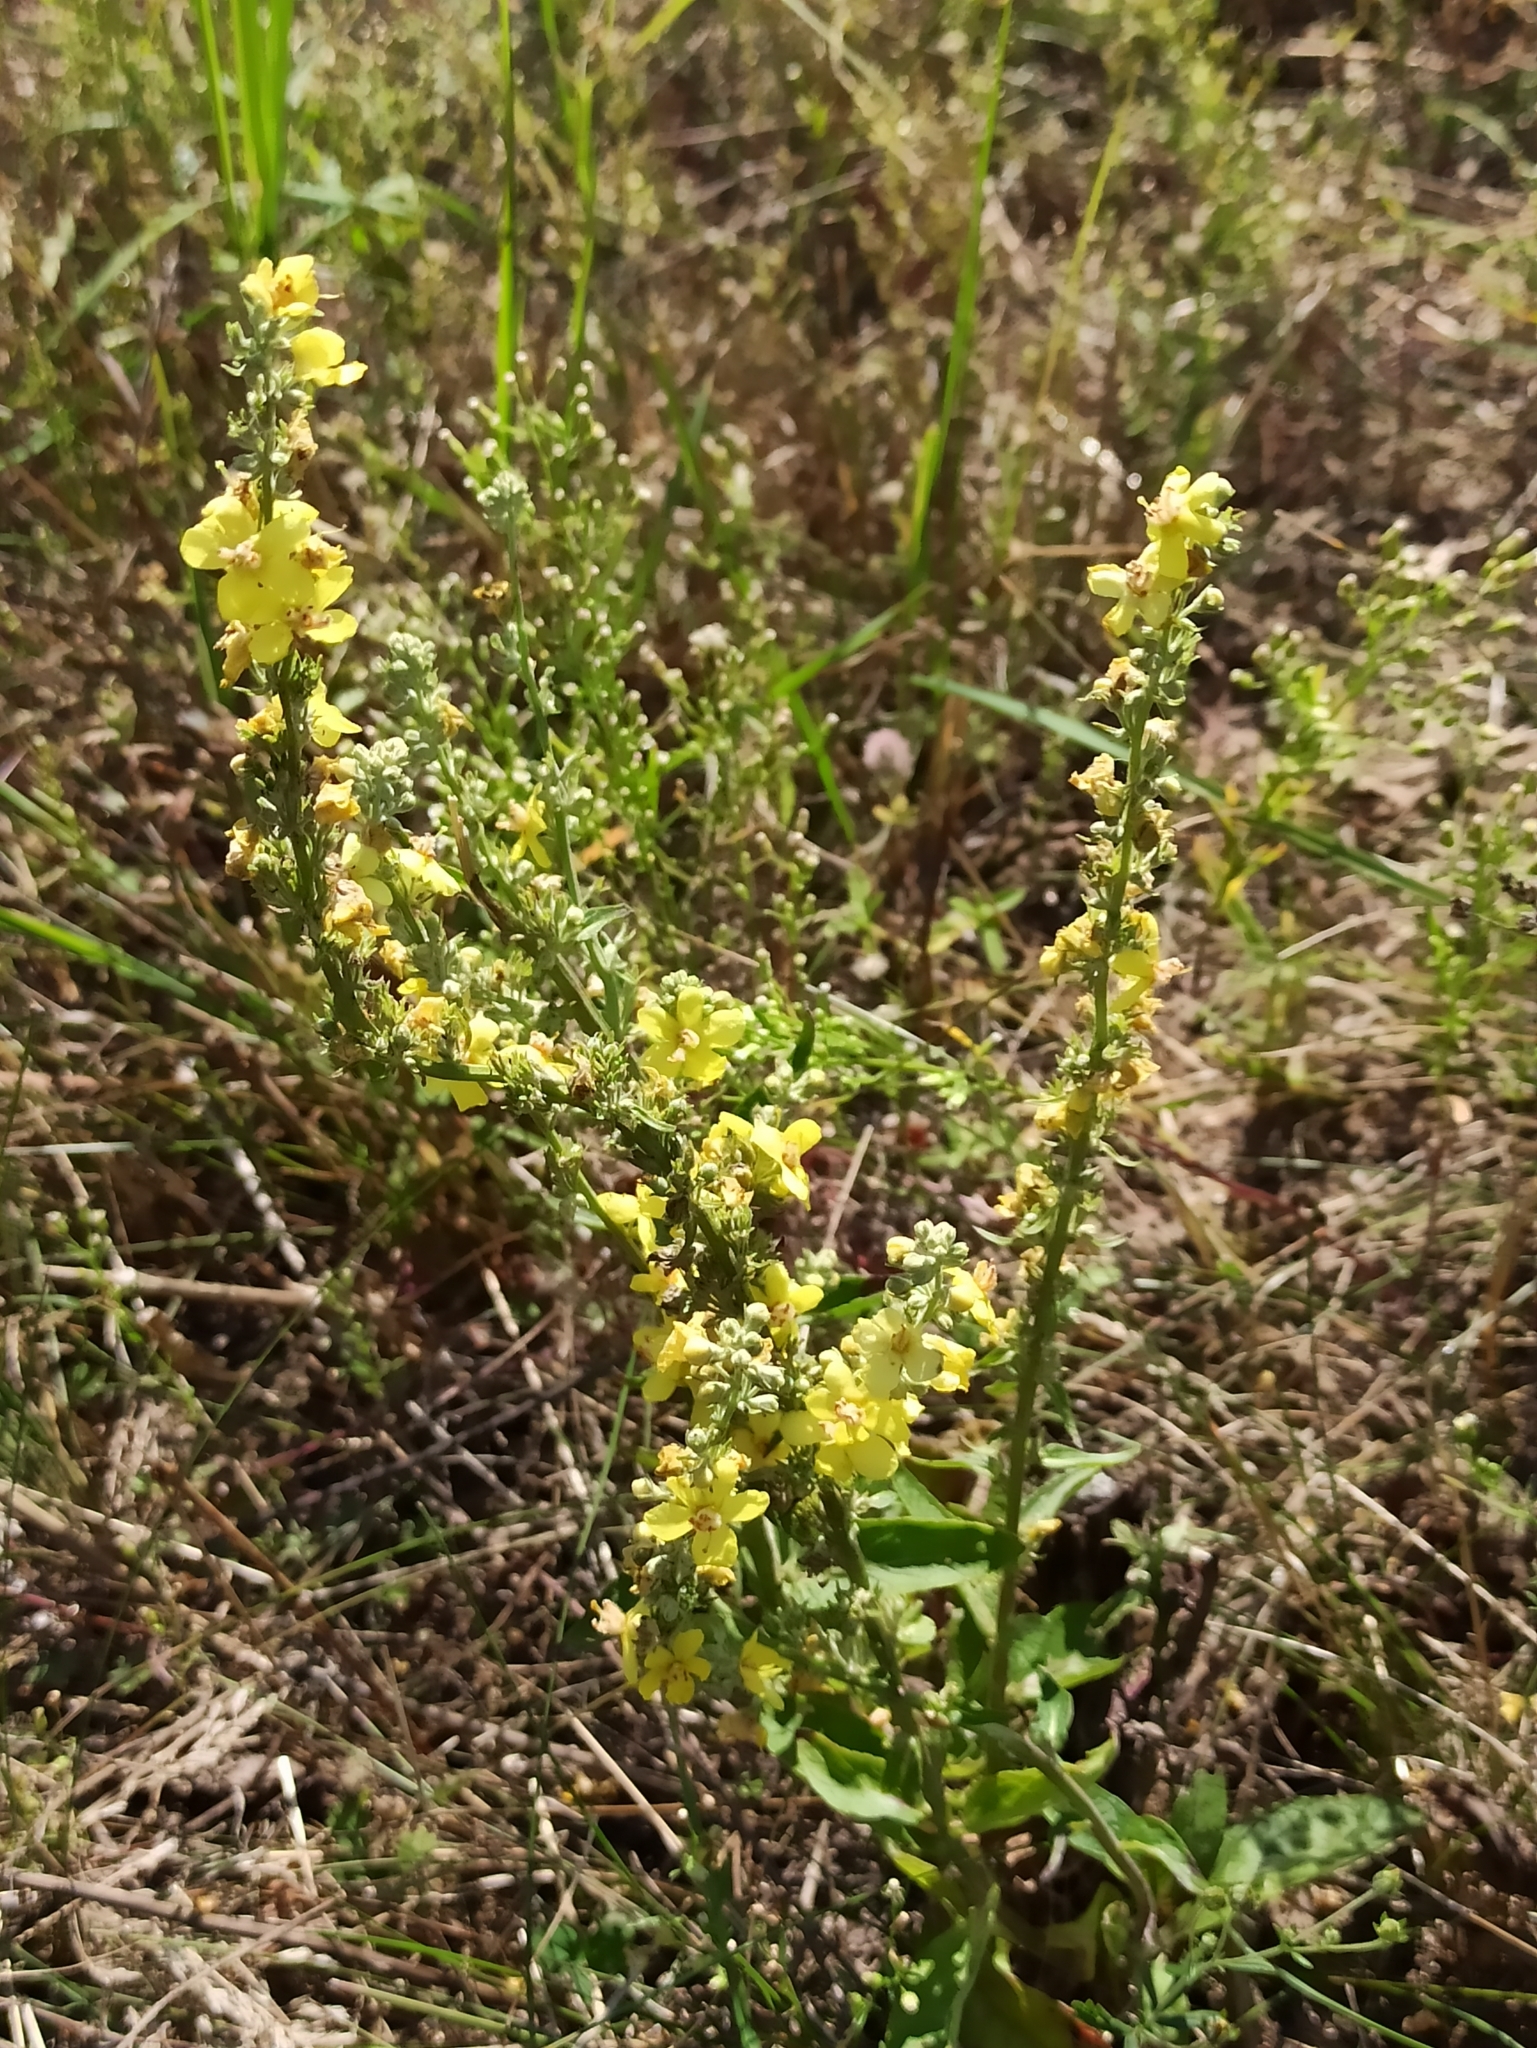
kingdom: Plantae
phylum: Tracheophyta
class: Magnoliopsida
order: Lamiales
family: Scrophulariaceae
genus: Verbascum
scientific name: Verbascum lychnitis
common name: White mullein
